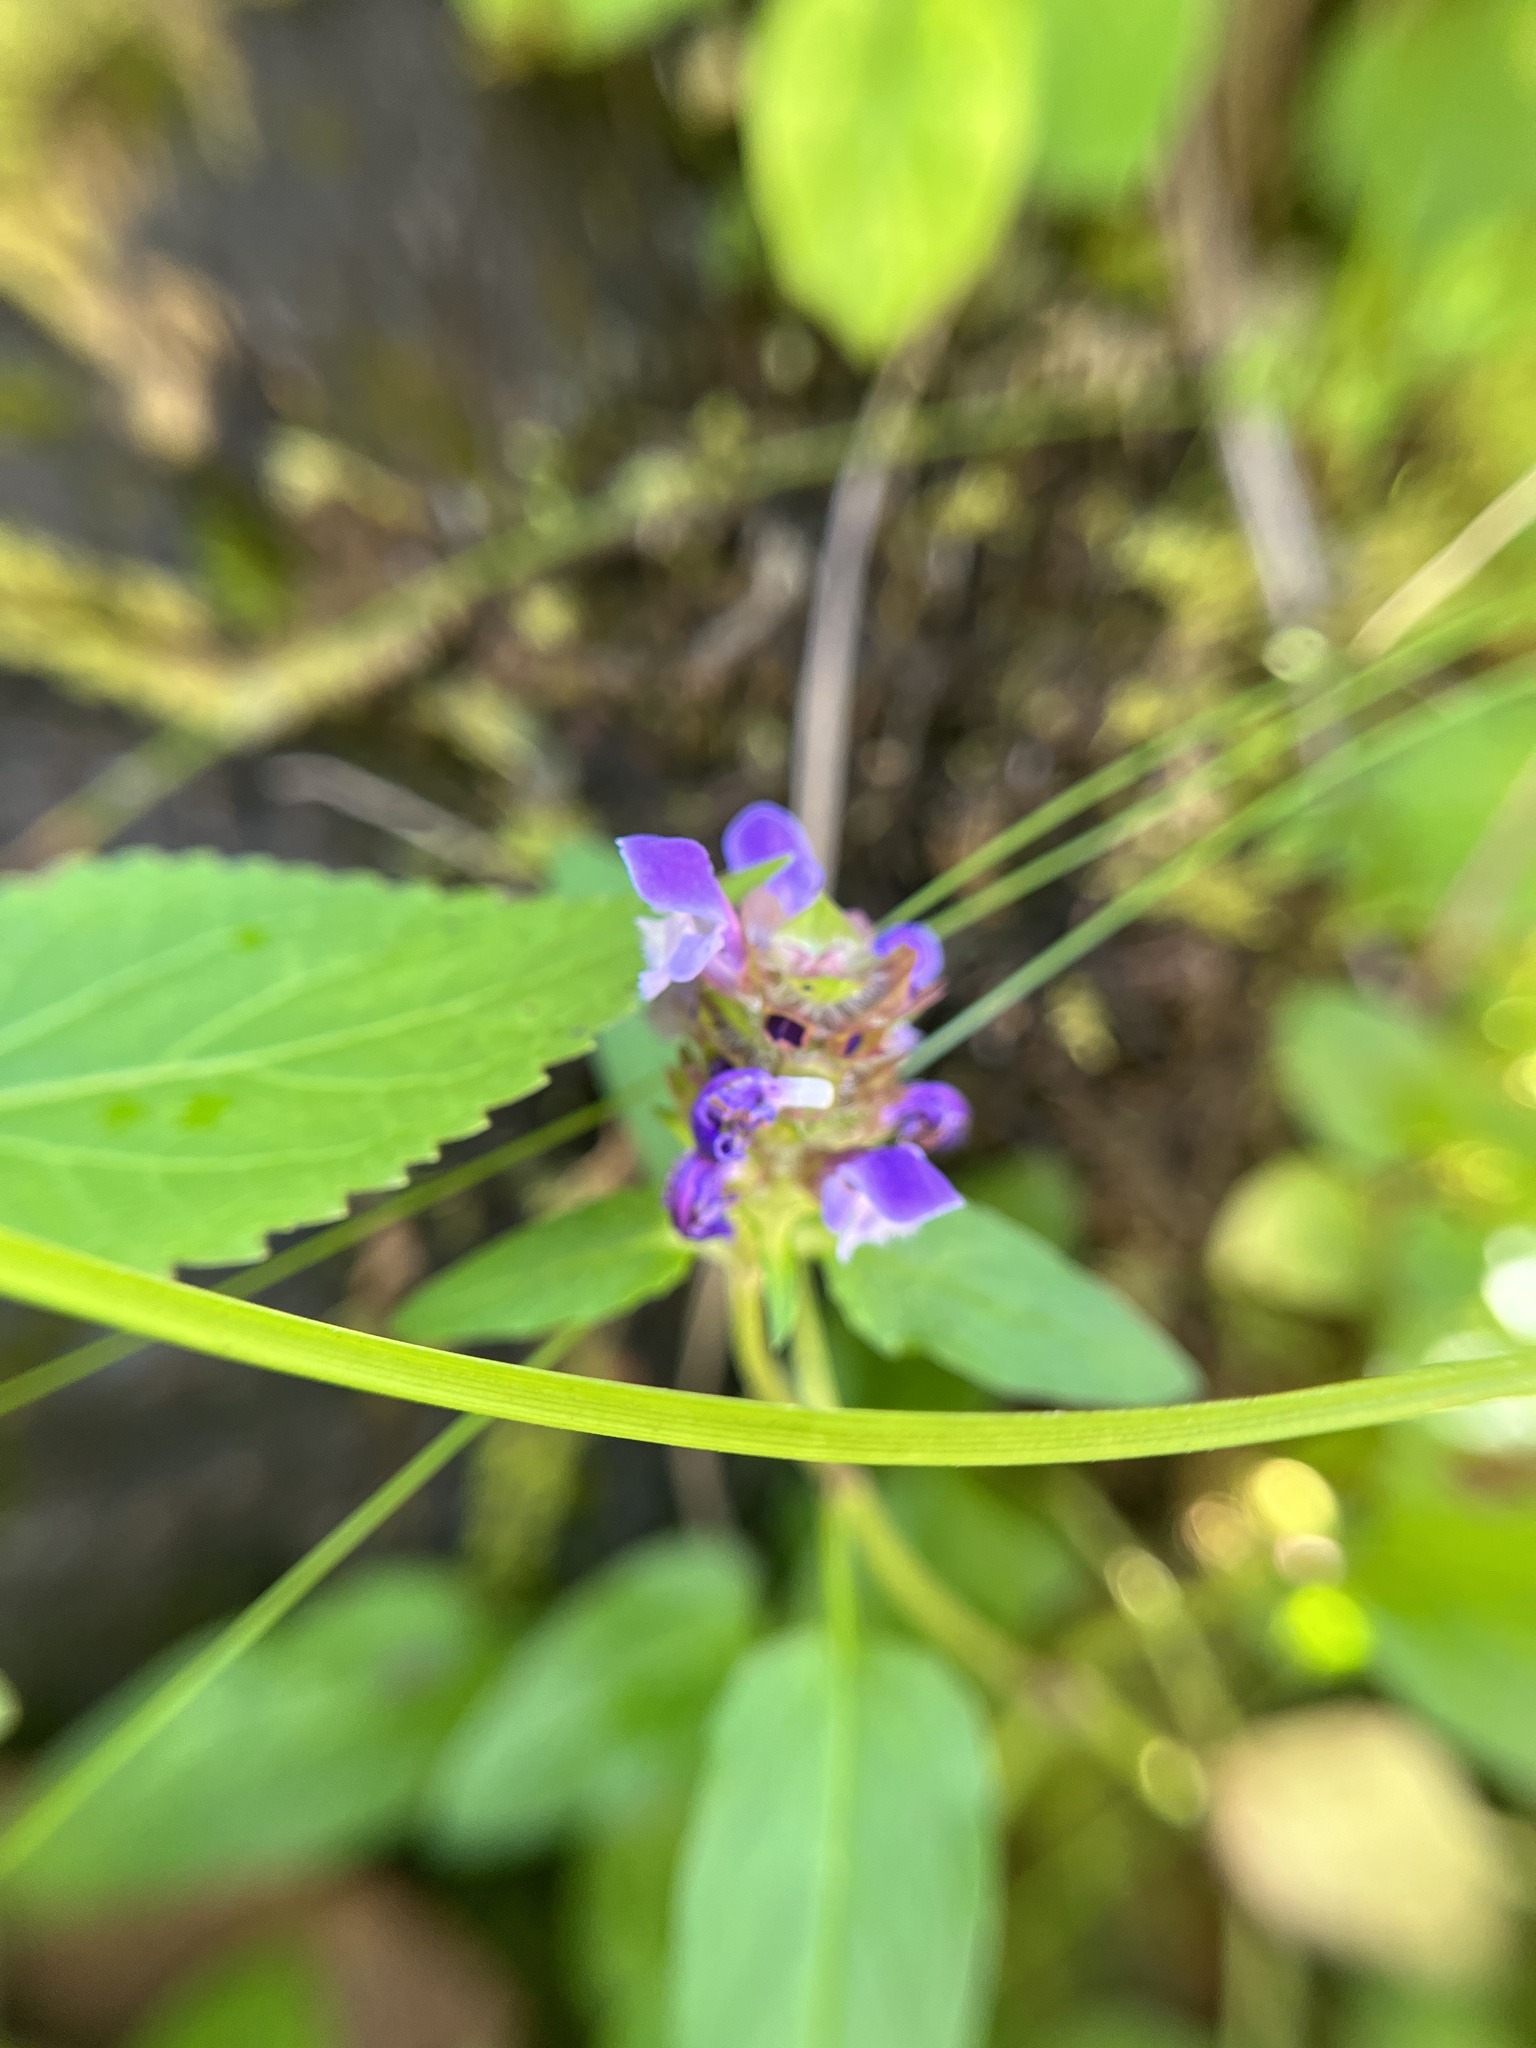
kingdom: Plantae
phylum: Tracheophyta
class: Magnoliopsida
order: Lamiales
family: Lamiaceae
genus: Prunella
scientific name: Prunella vulgaris
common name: Heal-all
